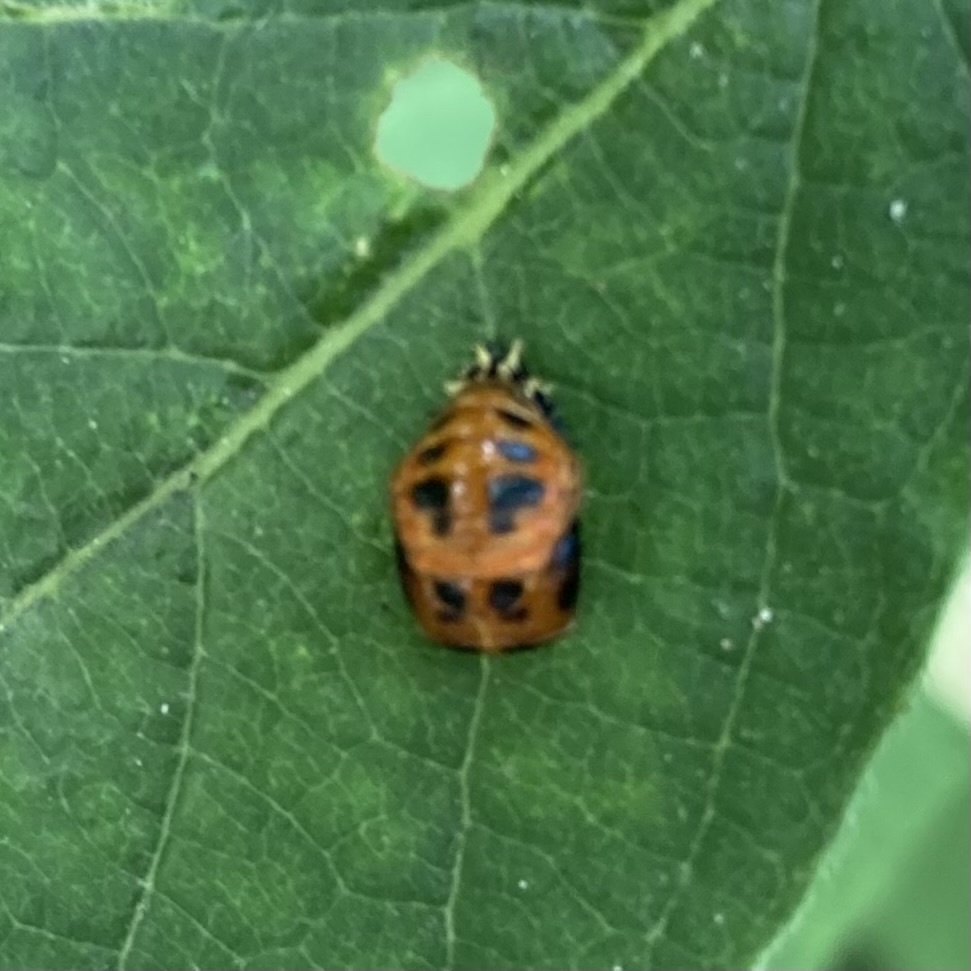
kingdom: Animalia
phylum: Arthropoda
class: Insecta
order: Coleoptera
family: Coccinellidae
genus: Harmonia
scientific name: Harmonia axyridis
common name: Harlequin ladybird
